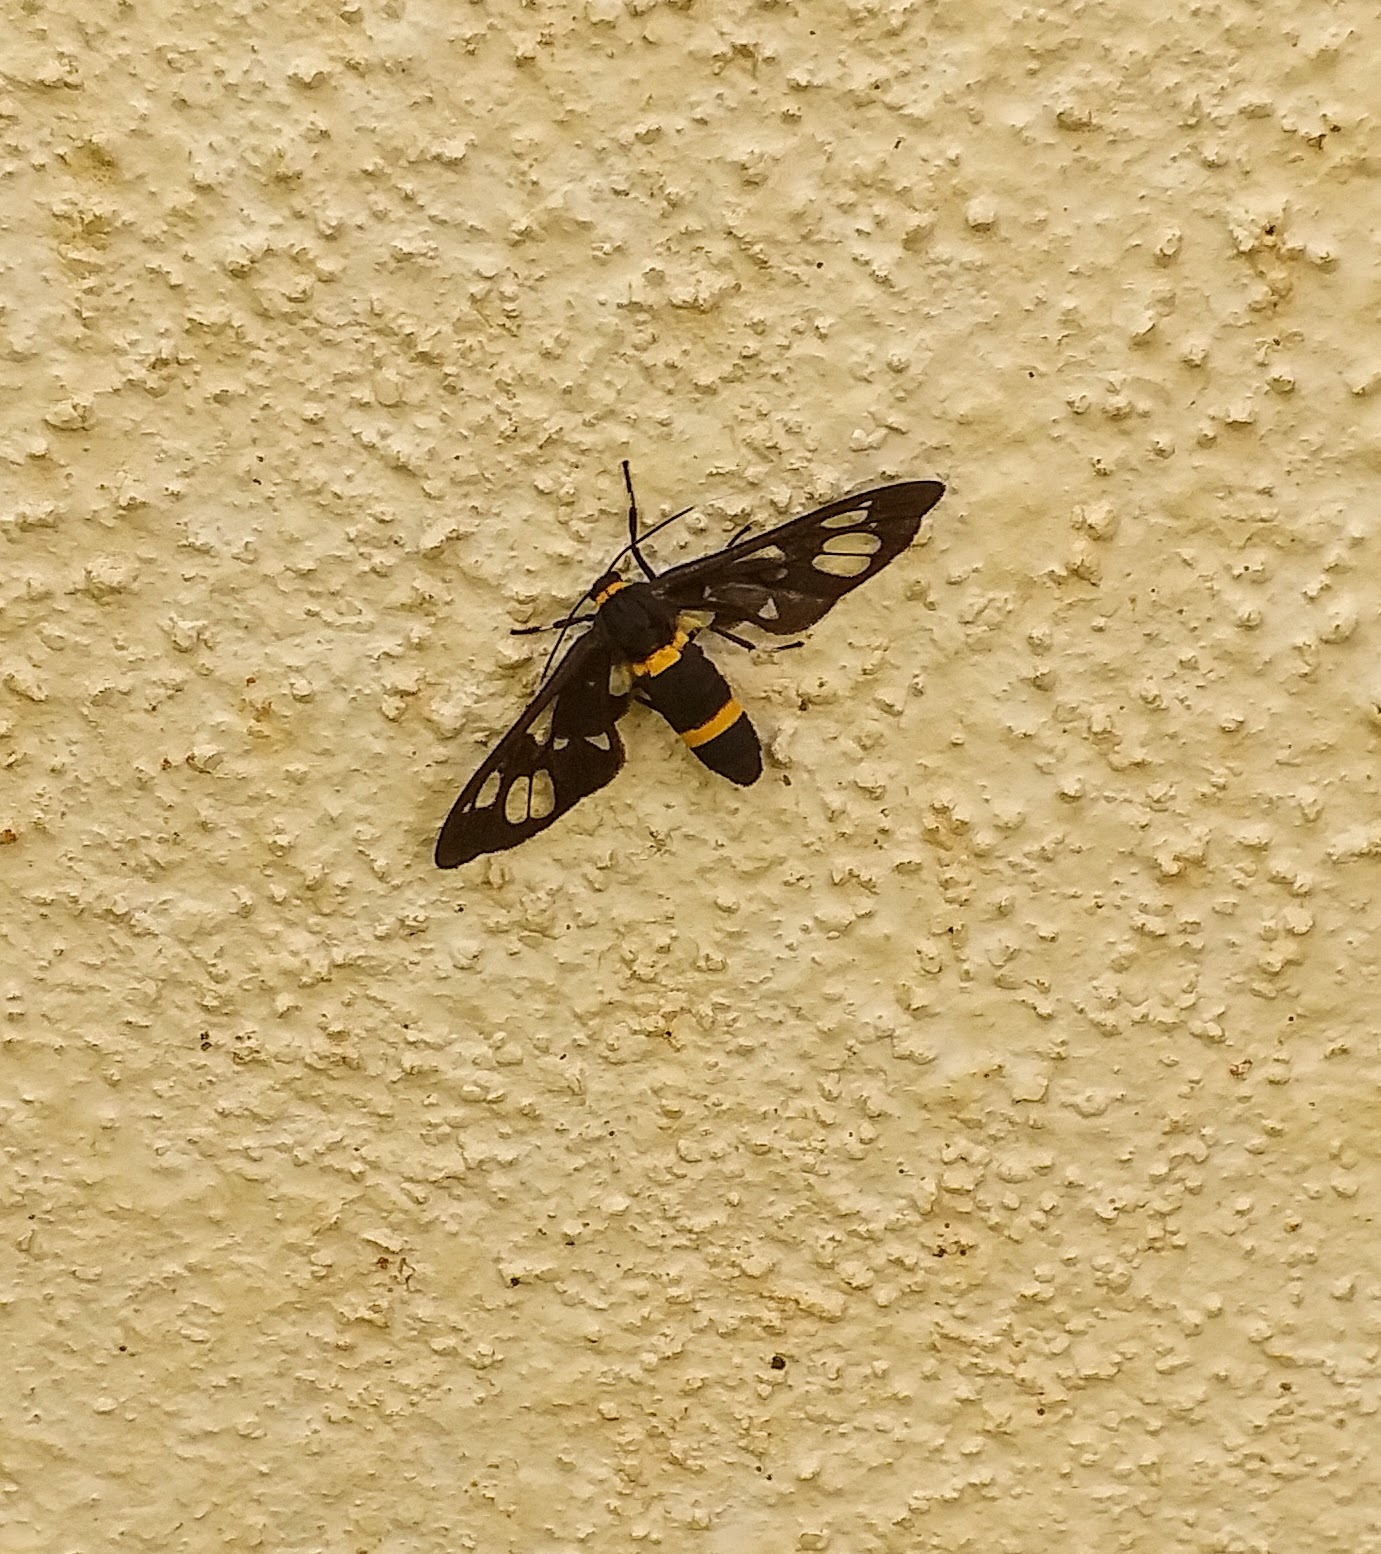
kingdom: Animalia
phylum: Arthropoda
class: Insecta
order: Lepidoptera
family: Erebidae
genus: Syntomoides
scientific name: Syntomoides imaon
